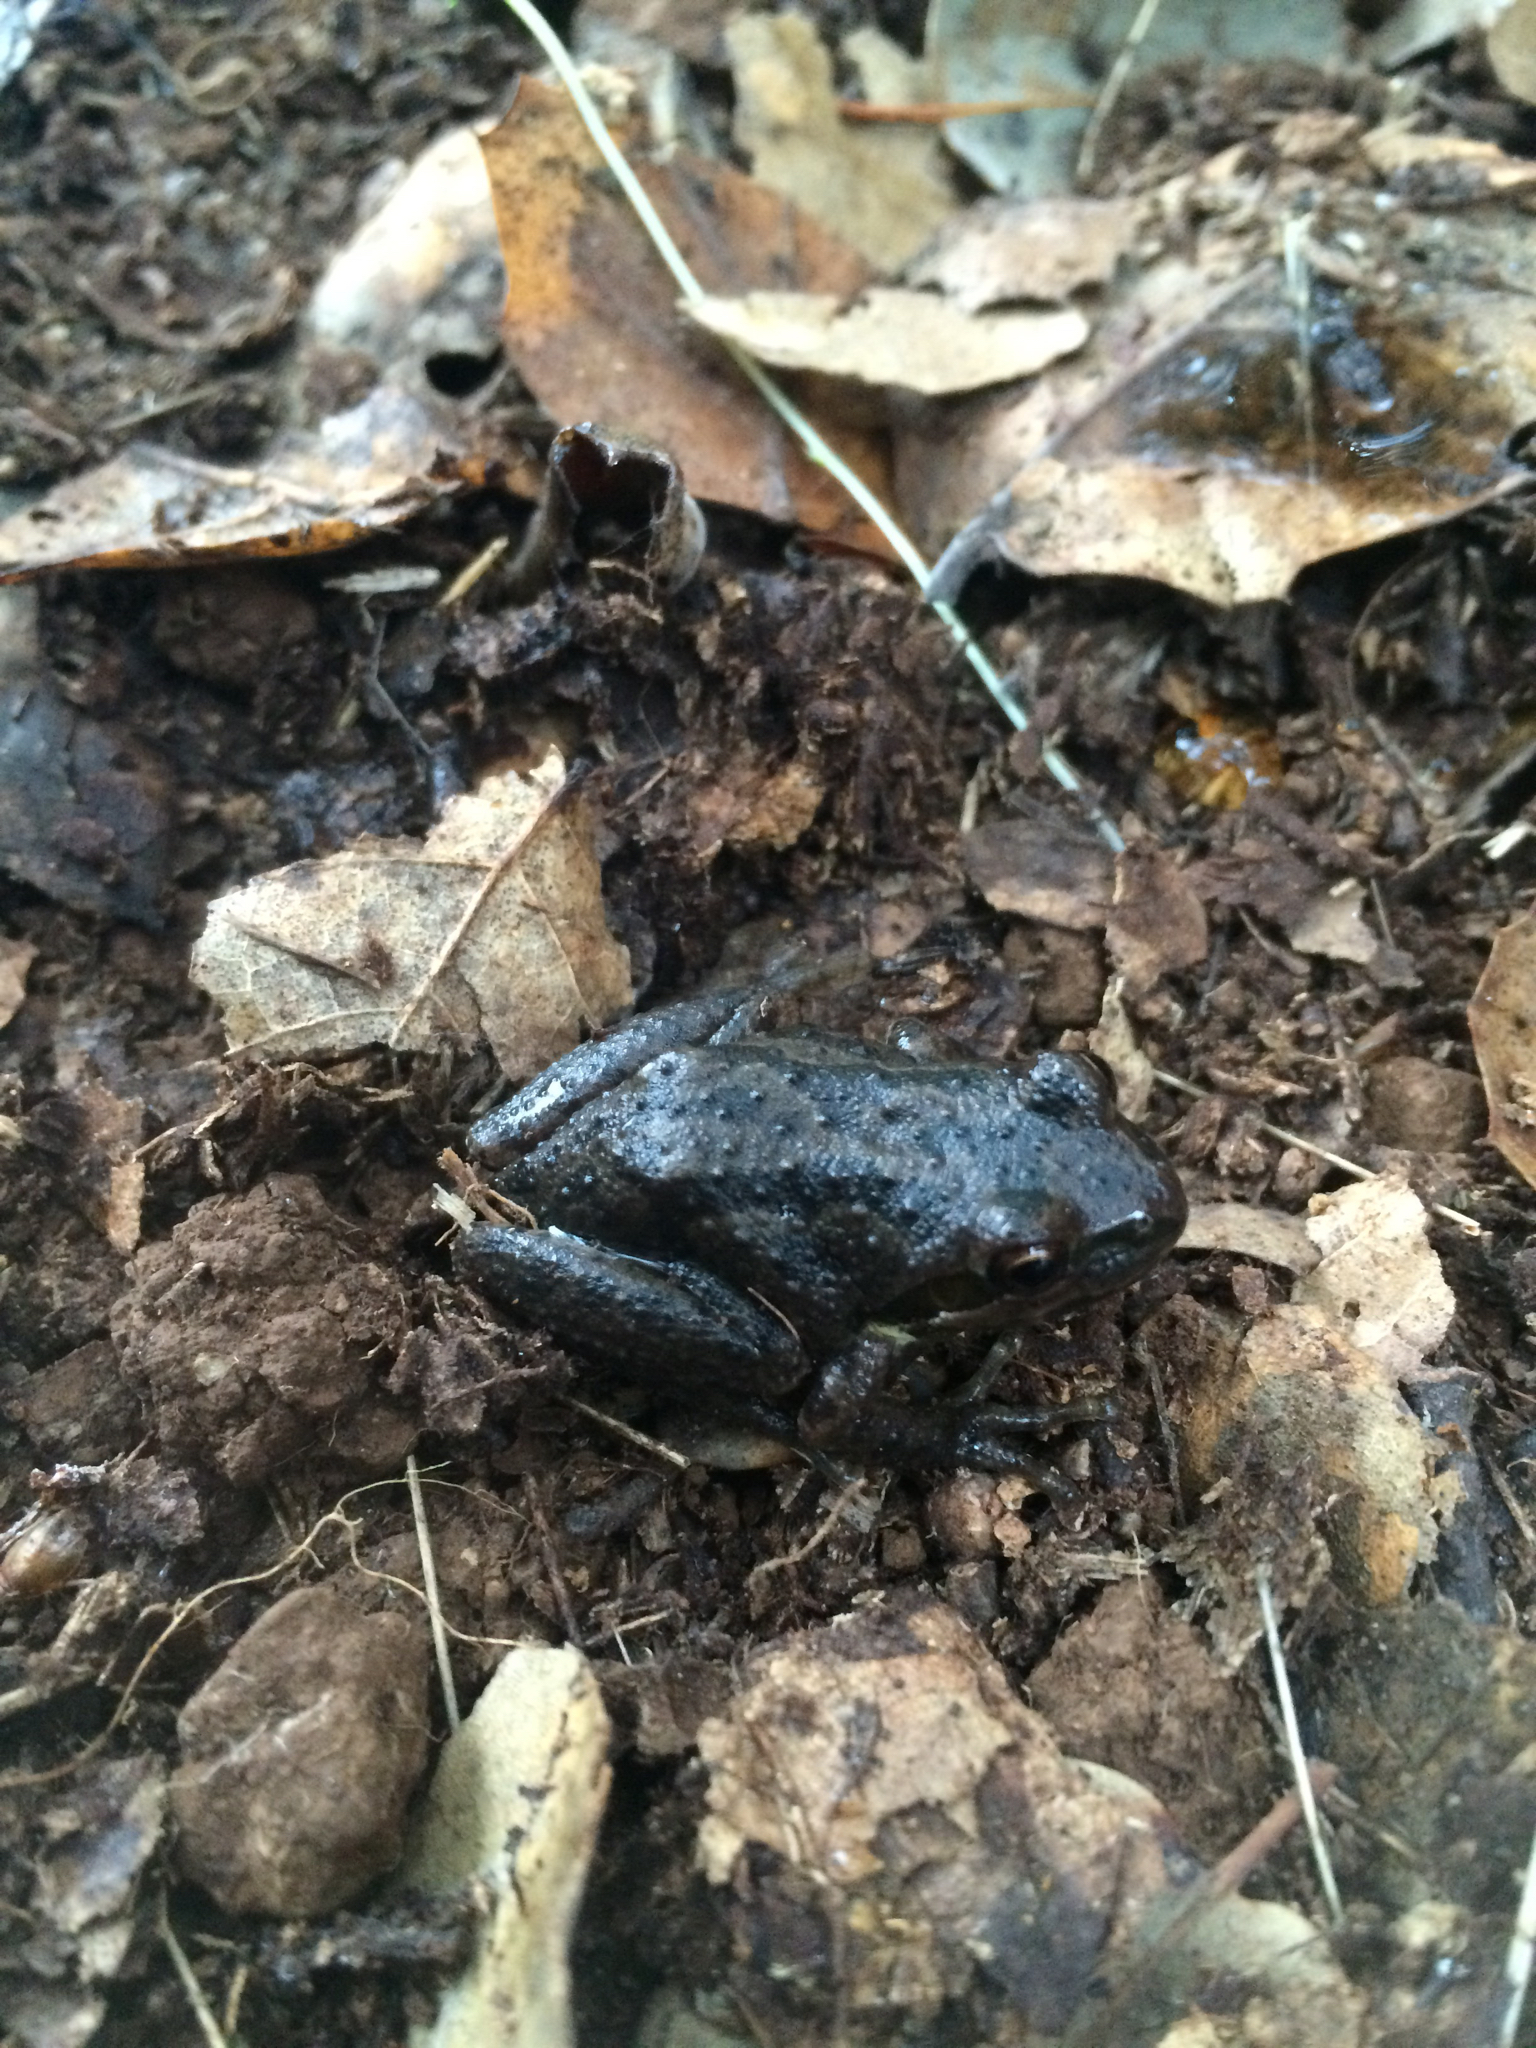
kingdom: Animalia
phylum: Chordata
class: Amphibia
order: Anura
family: Hylidae
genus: Pseudacris
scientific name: Pseudacris regilla
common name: Pacific chorus frog
